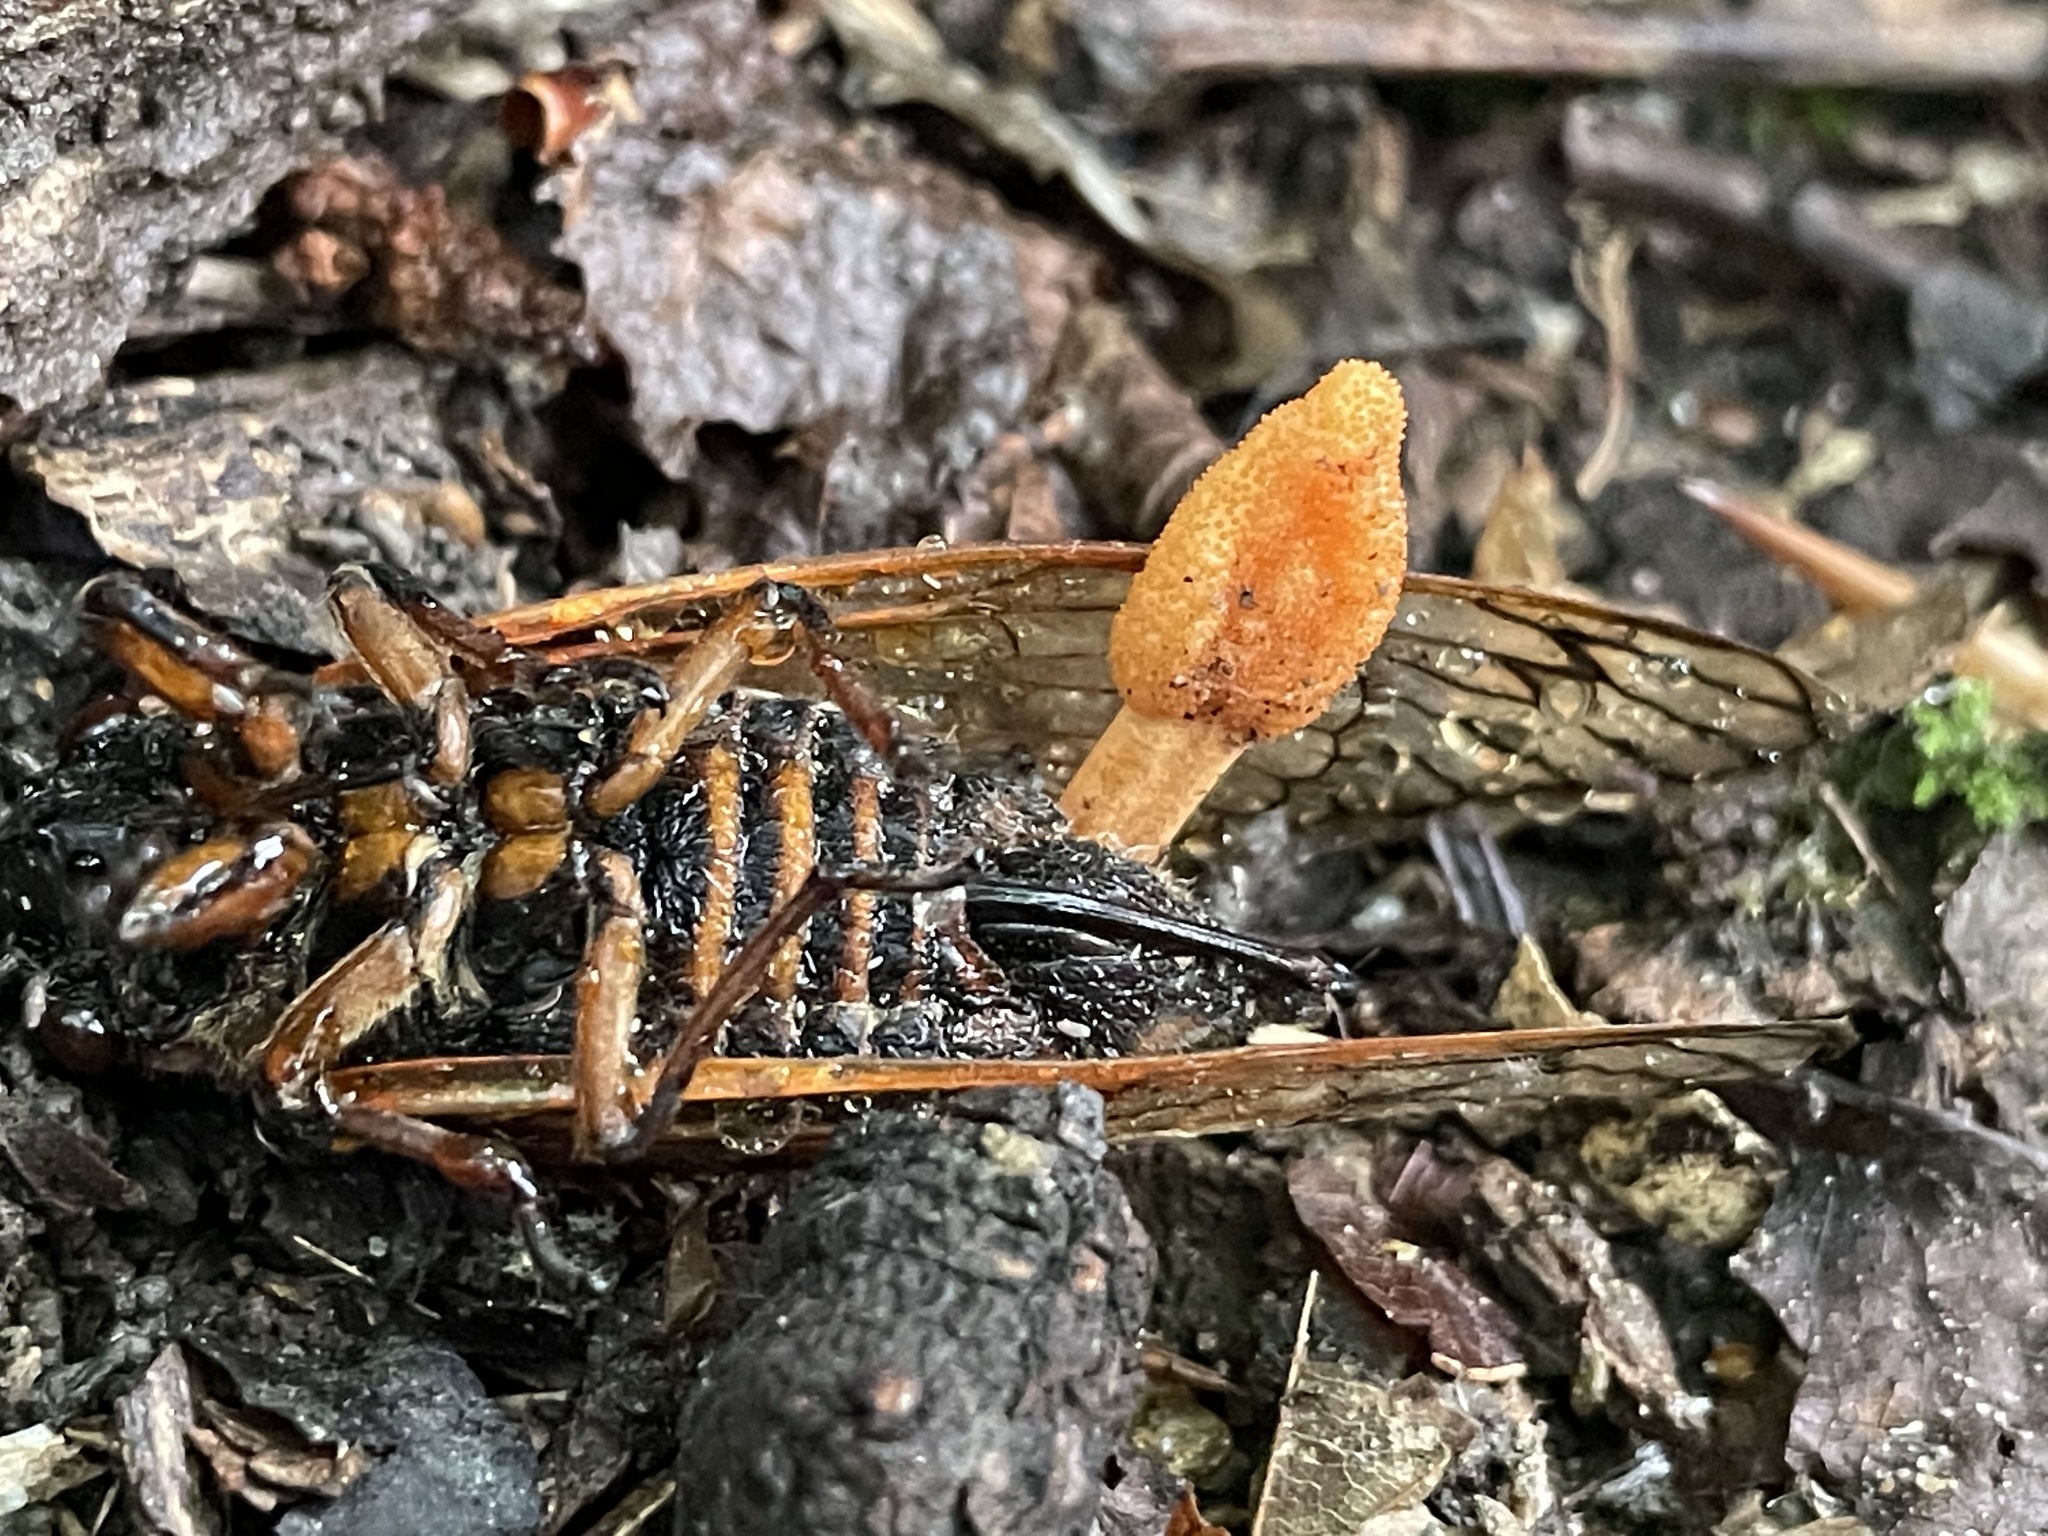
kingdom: Fungi
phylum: Ascomycota
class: Sordariomycetes
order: Hypocreales
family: Cordycipitaceae
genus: Cordyceps
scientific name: Cordyceps militaris
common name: Scarlet caterpillar fungus
